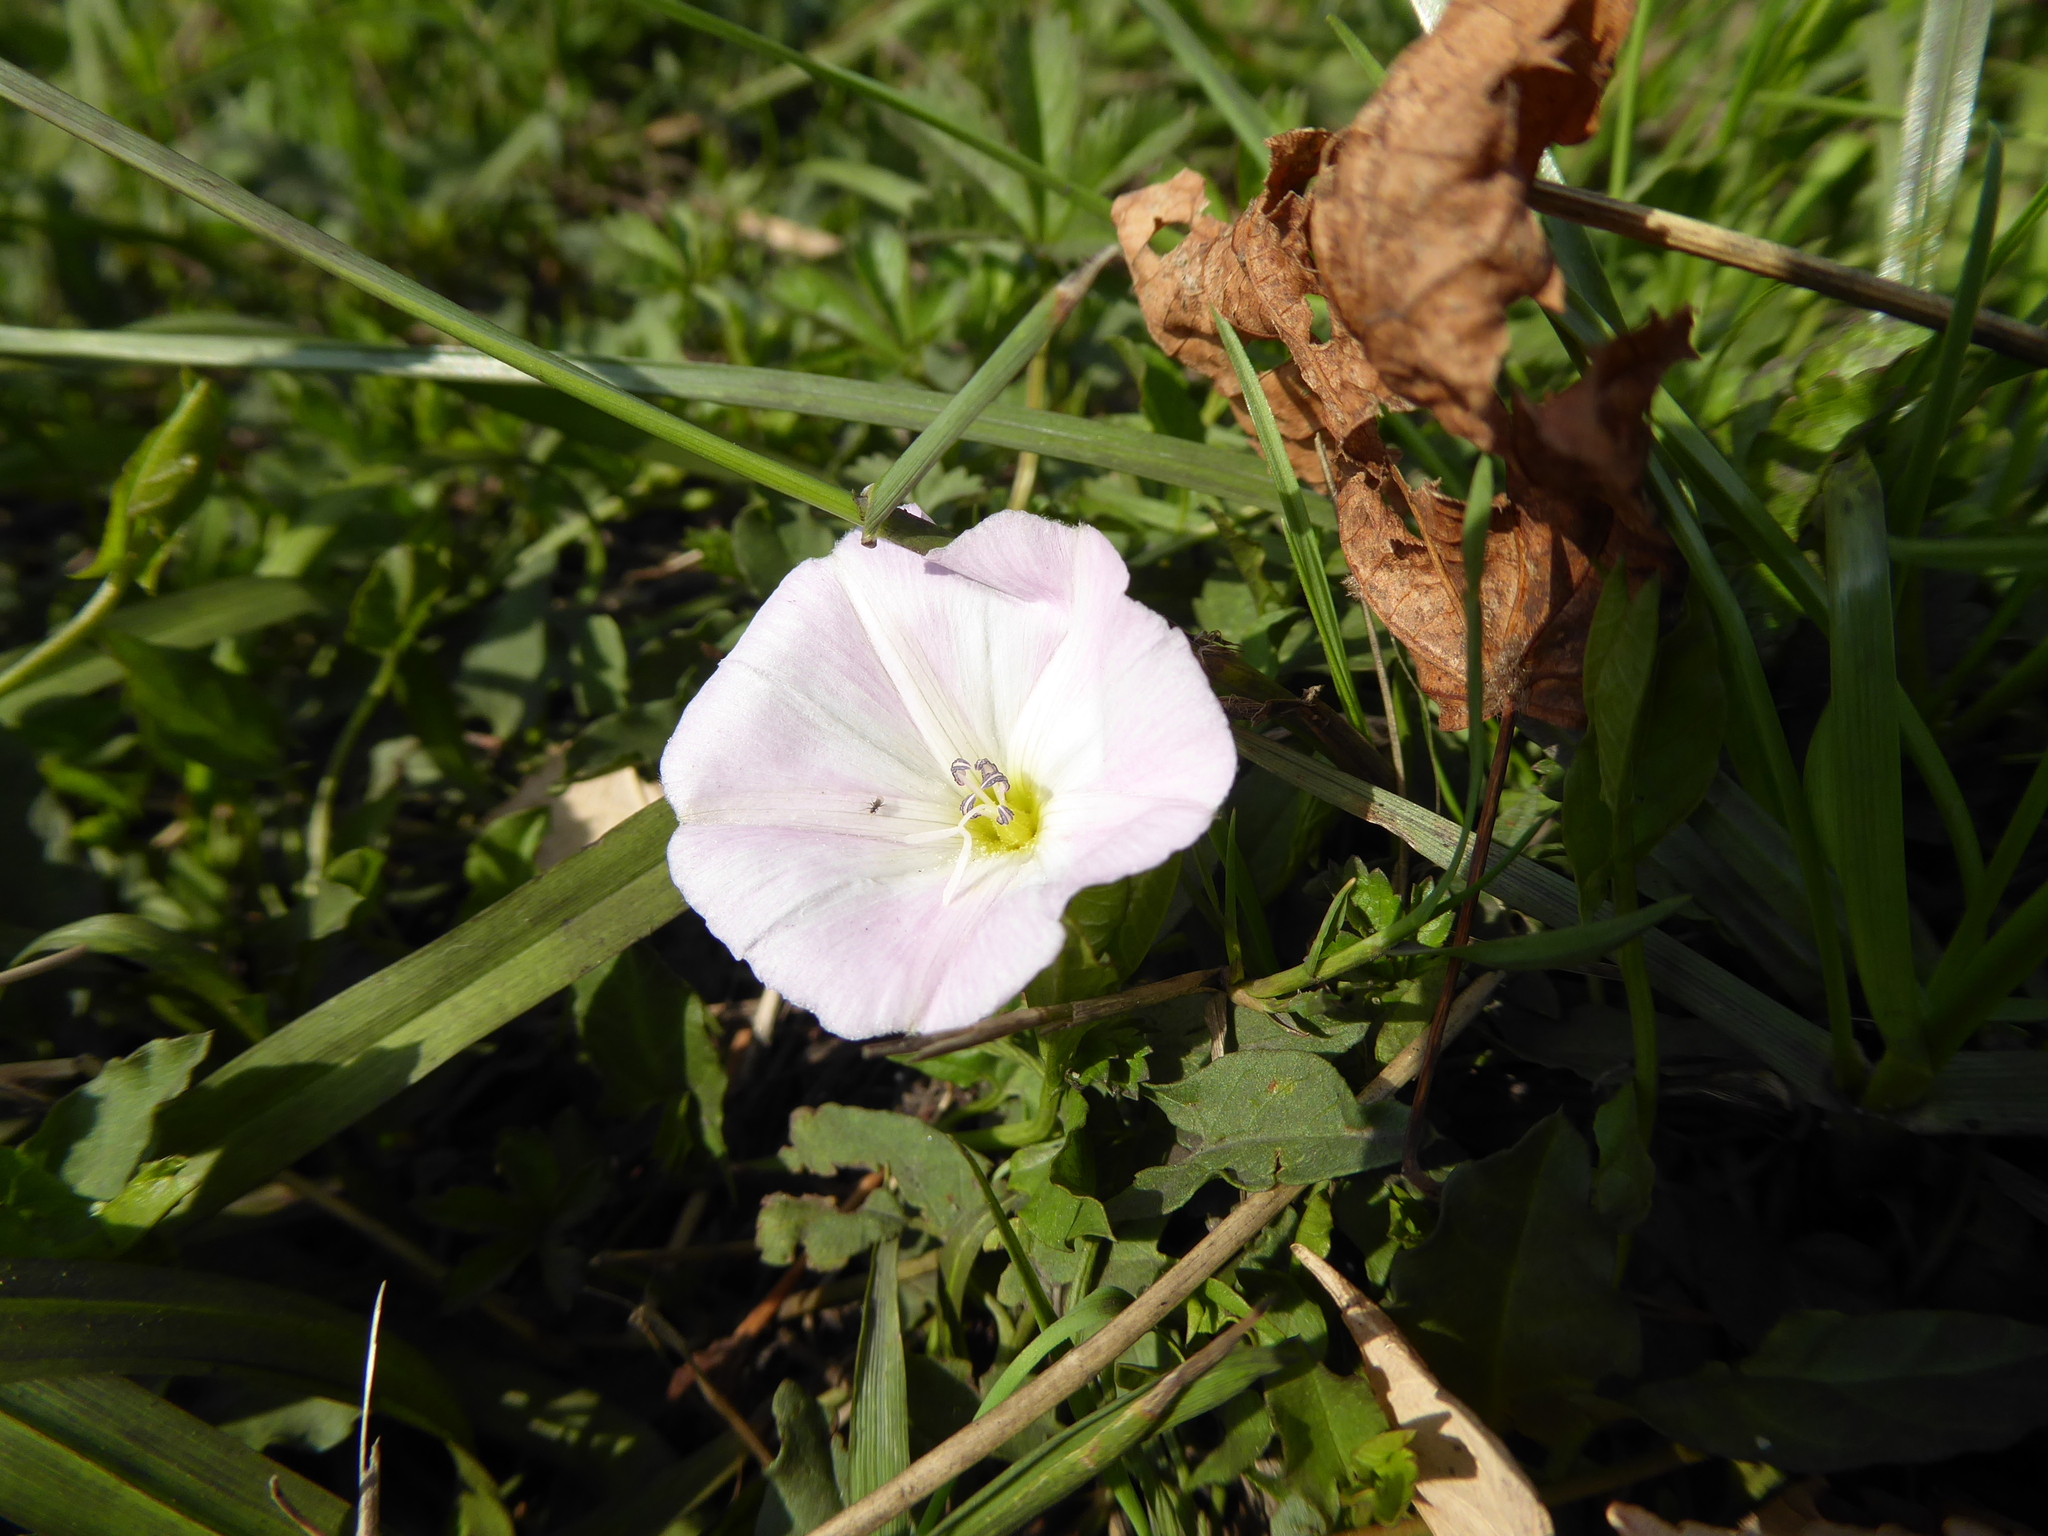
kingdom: Plantae
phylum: Tracheophyta
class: Magnoliopsida
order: Solanales
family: Convolvulaceae
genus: Convolvulus
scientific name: Convolvulus arvensis
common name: Field bindweed
